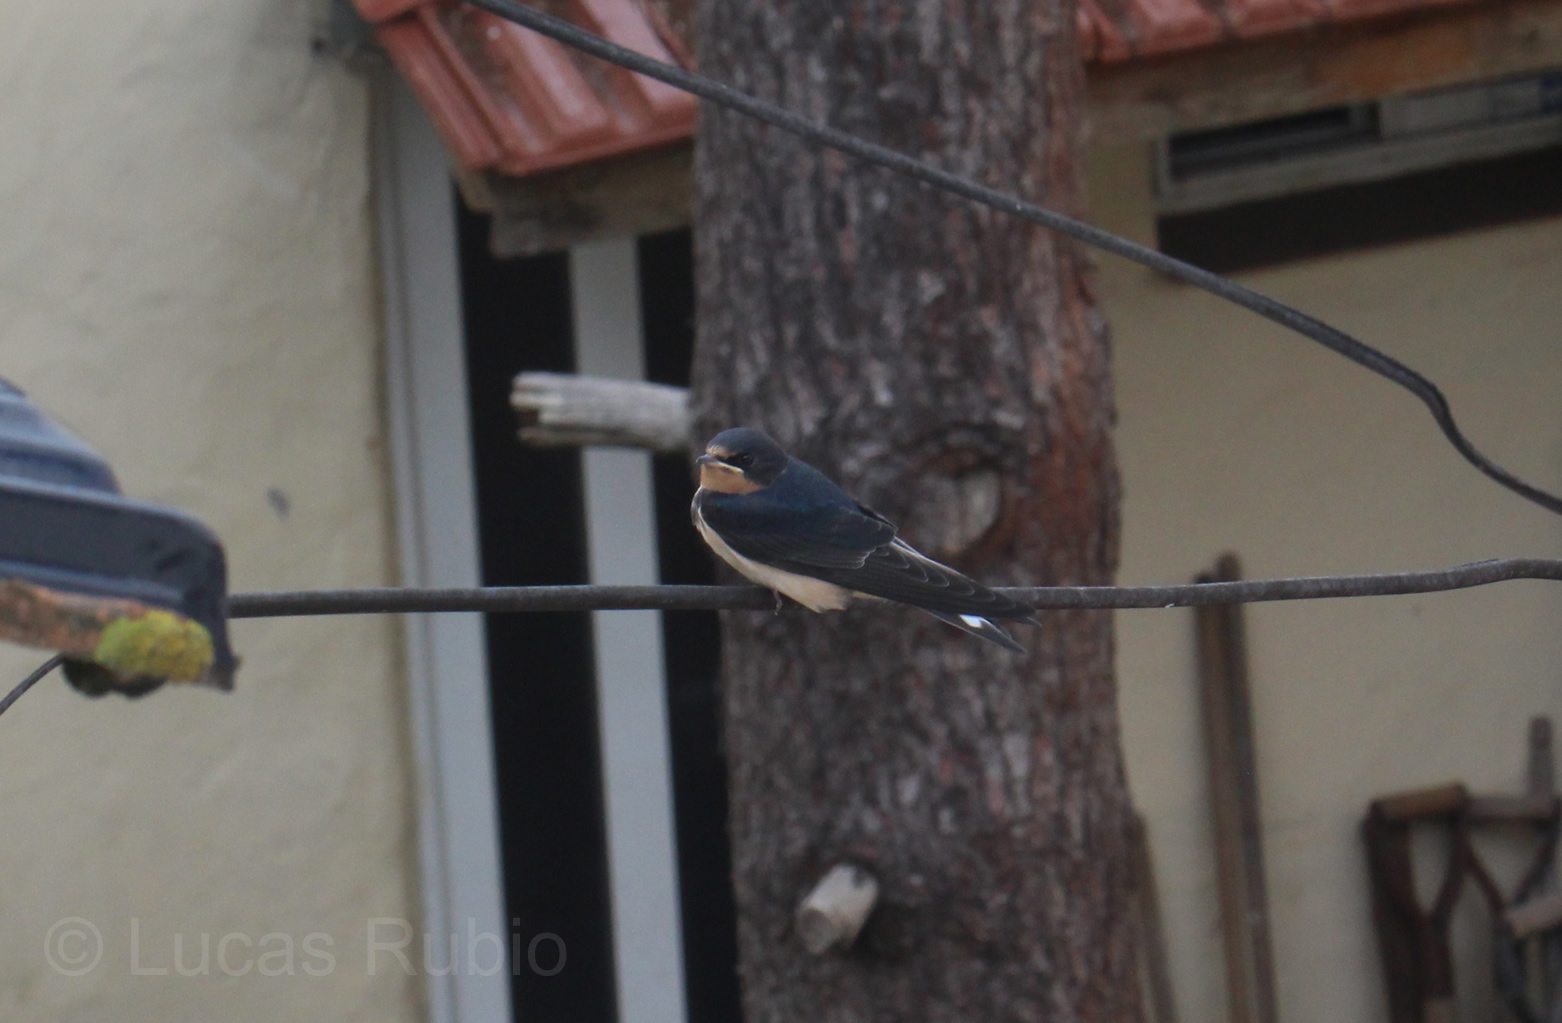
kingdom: Animalia
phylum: Chordata
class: Aves
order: Passeriformes
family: Hirundinidae
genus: Hirundo
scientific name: Hirundo rustica
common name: Barn swallow
